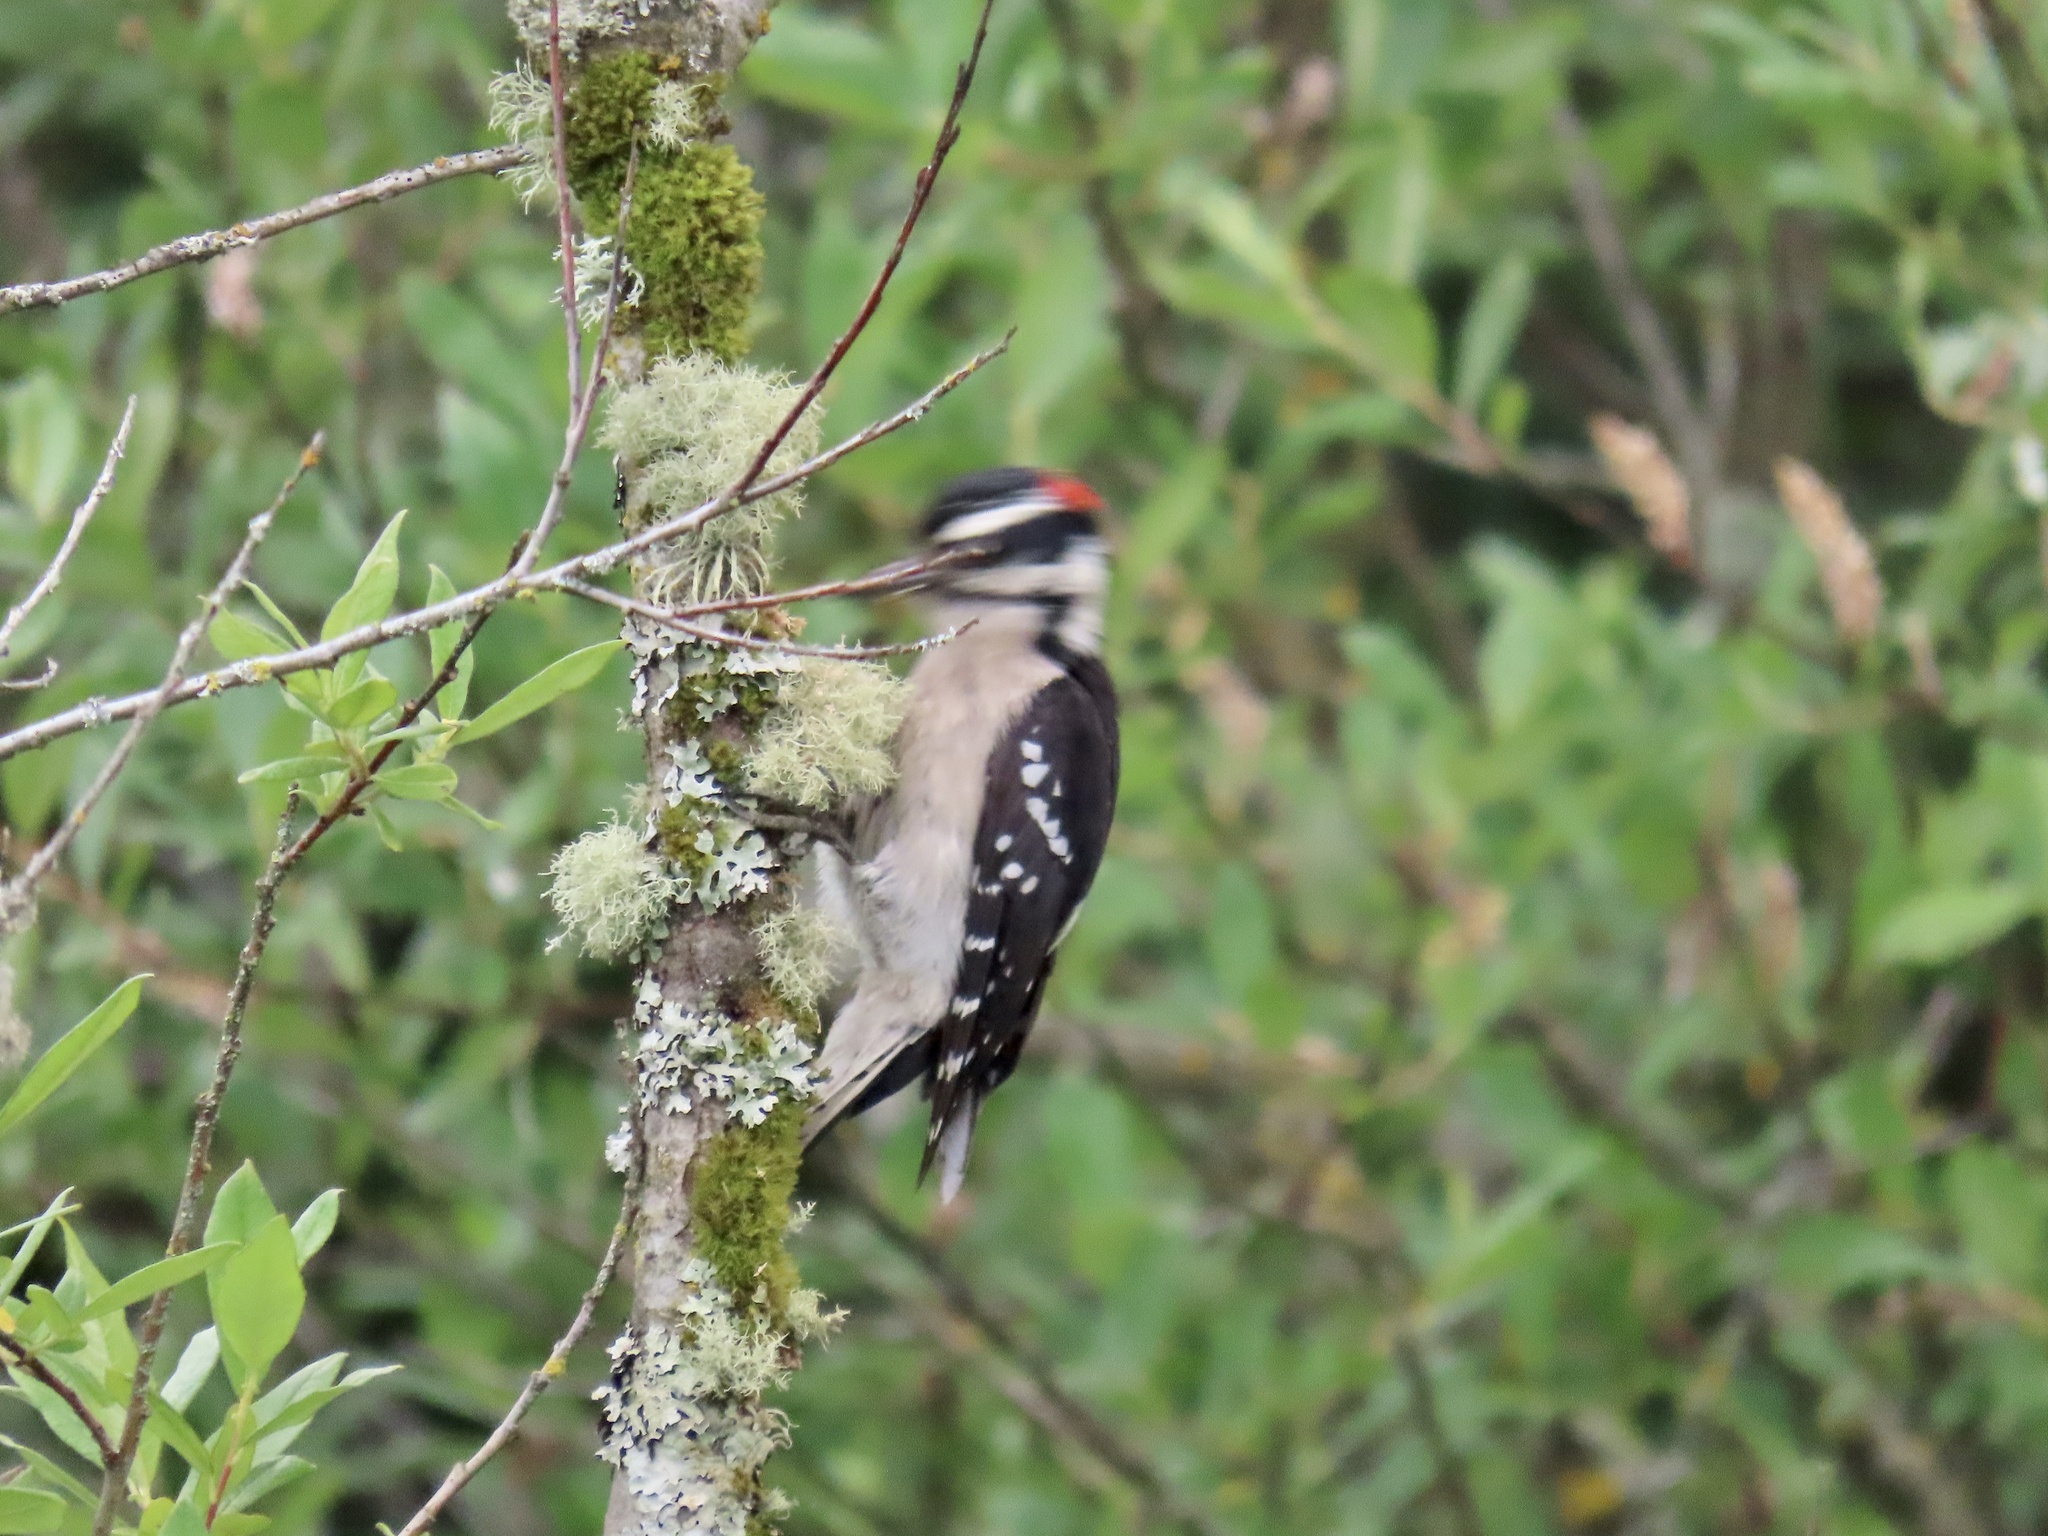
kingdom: Animalia
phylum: Chordata
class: Aves
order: Piciformes
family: Picidae
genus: Dryobates
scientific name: Dryobates pubescens
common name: Downy woodpecker
